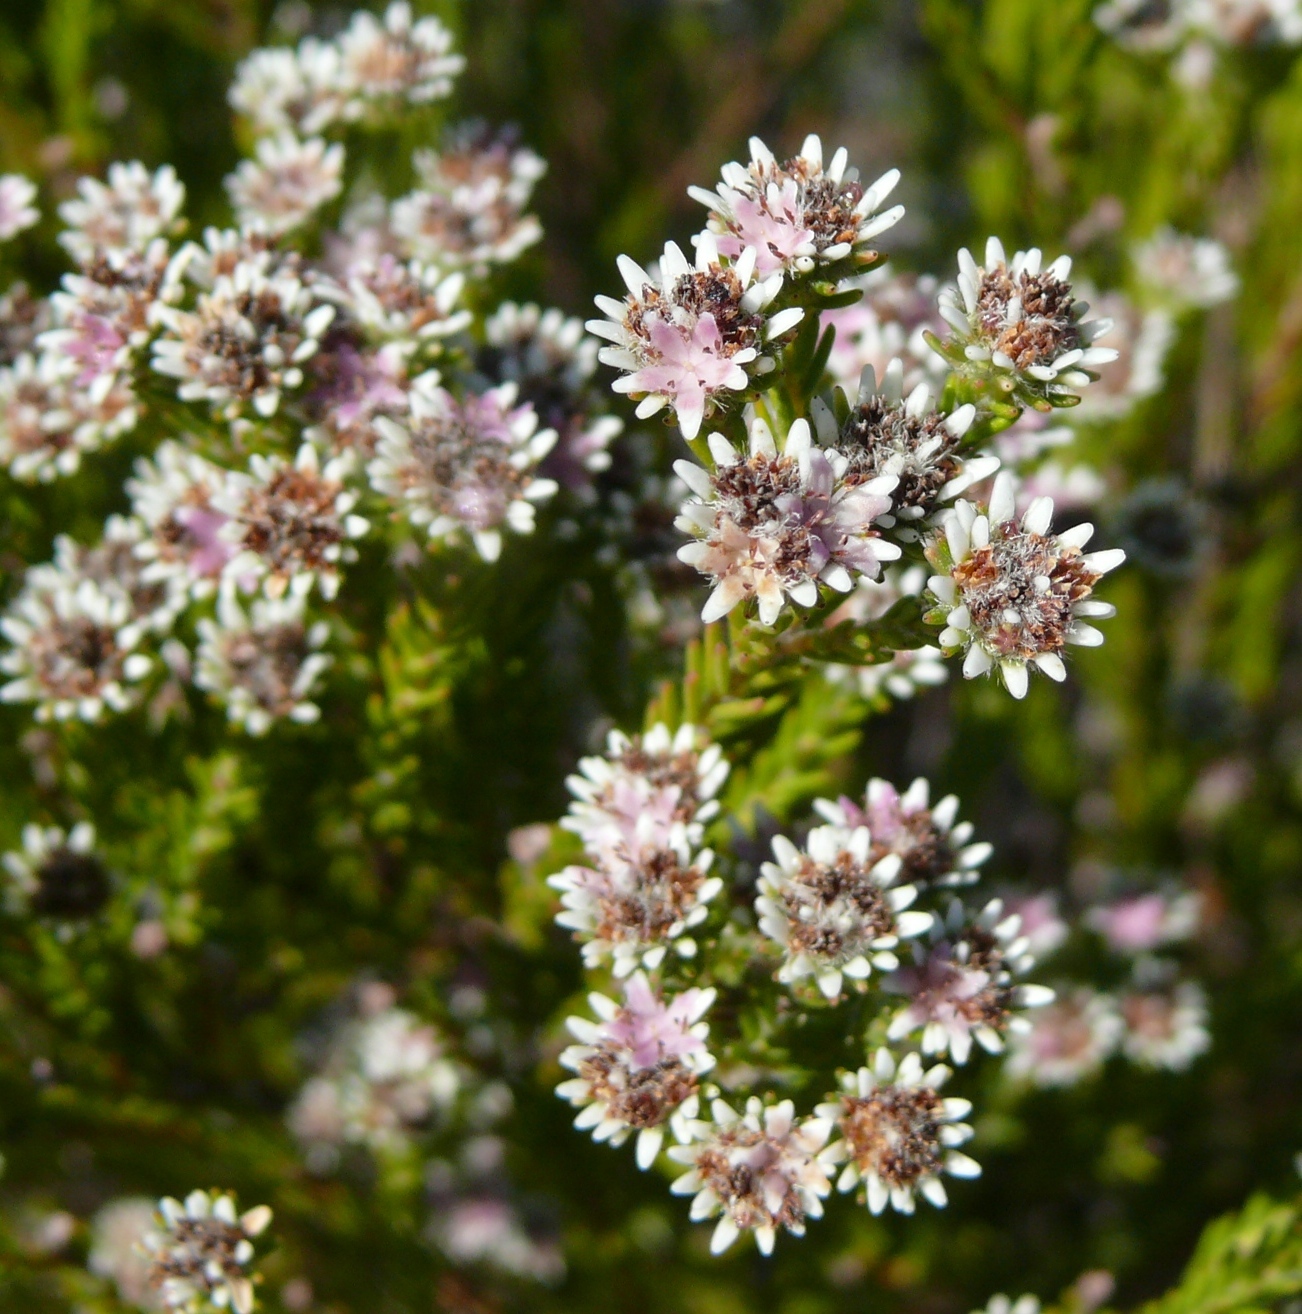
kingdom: Plantae
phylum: Tracheophyta
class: Magnoliopsida
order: Bruniales
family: Bruniaceae
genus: Staavia
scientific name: Staavia radiata
